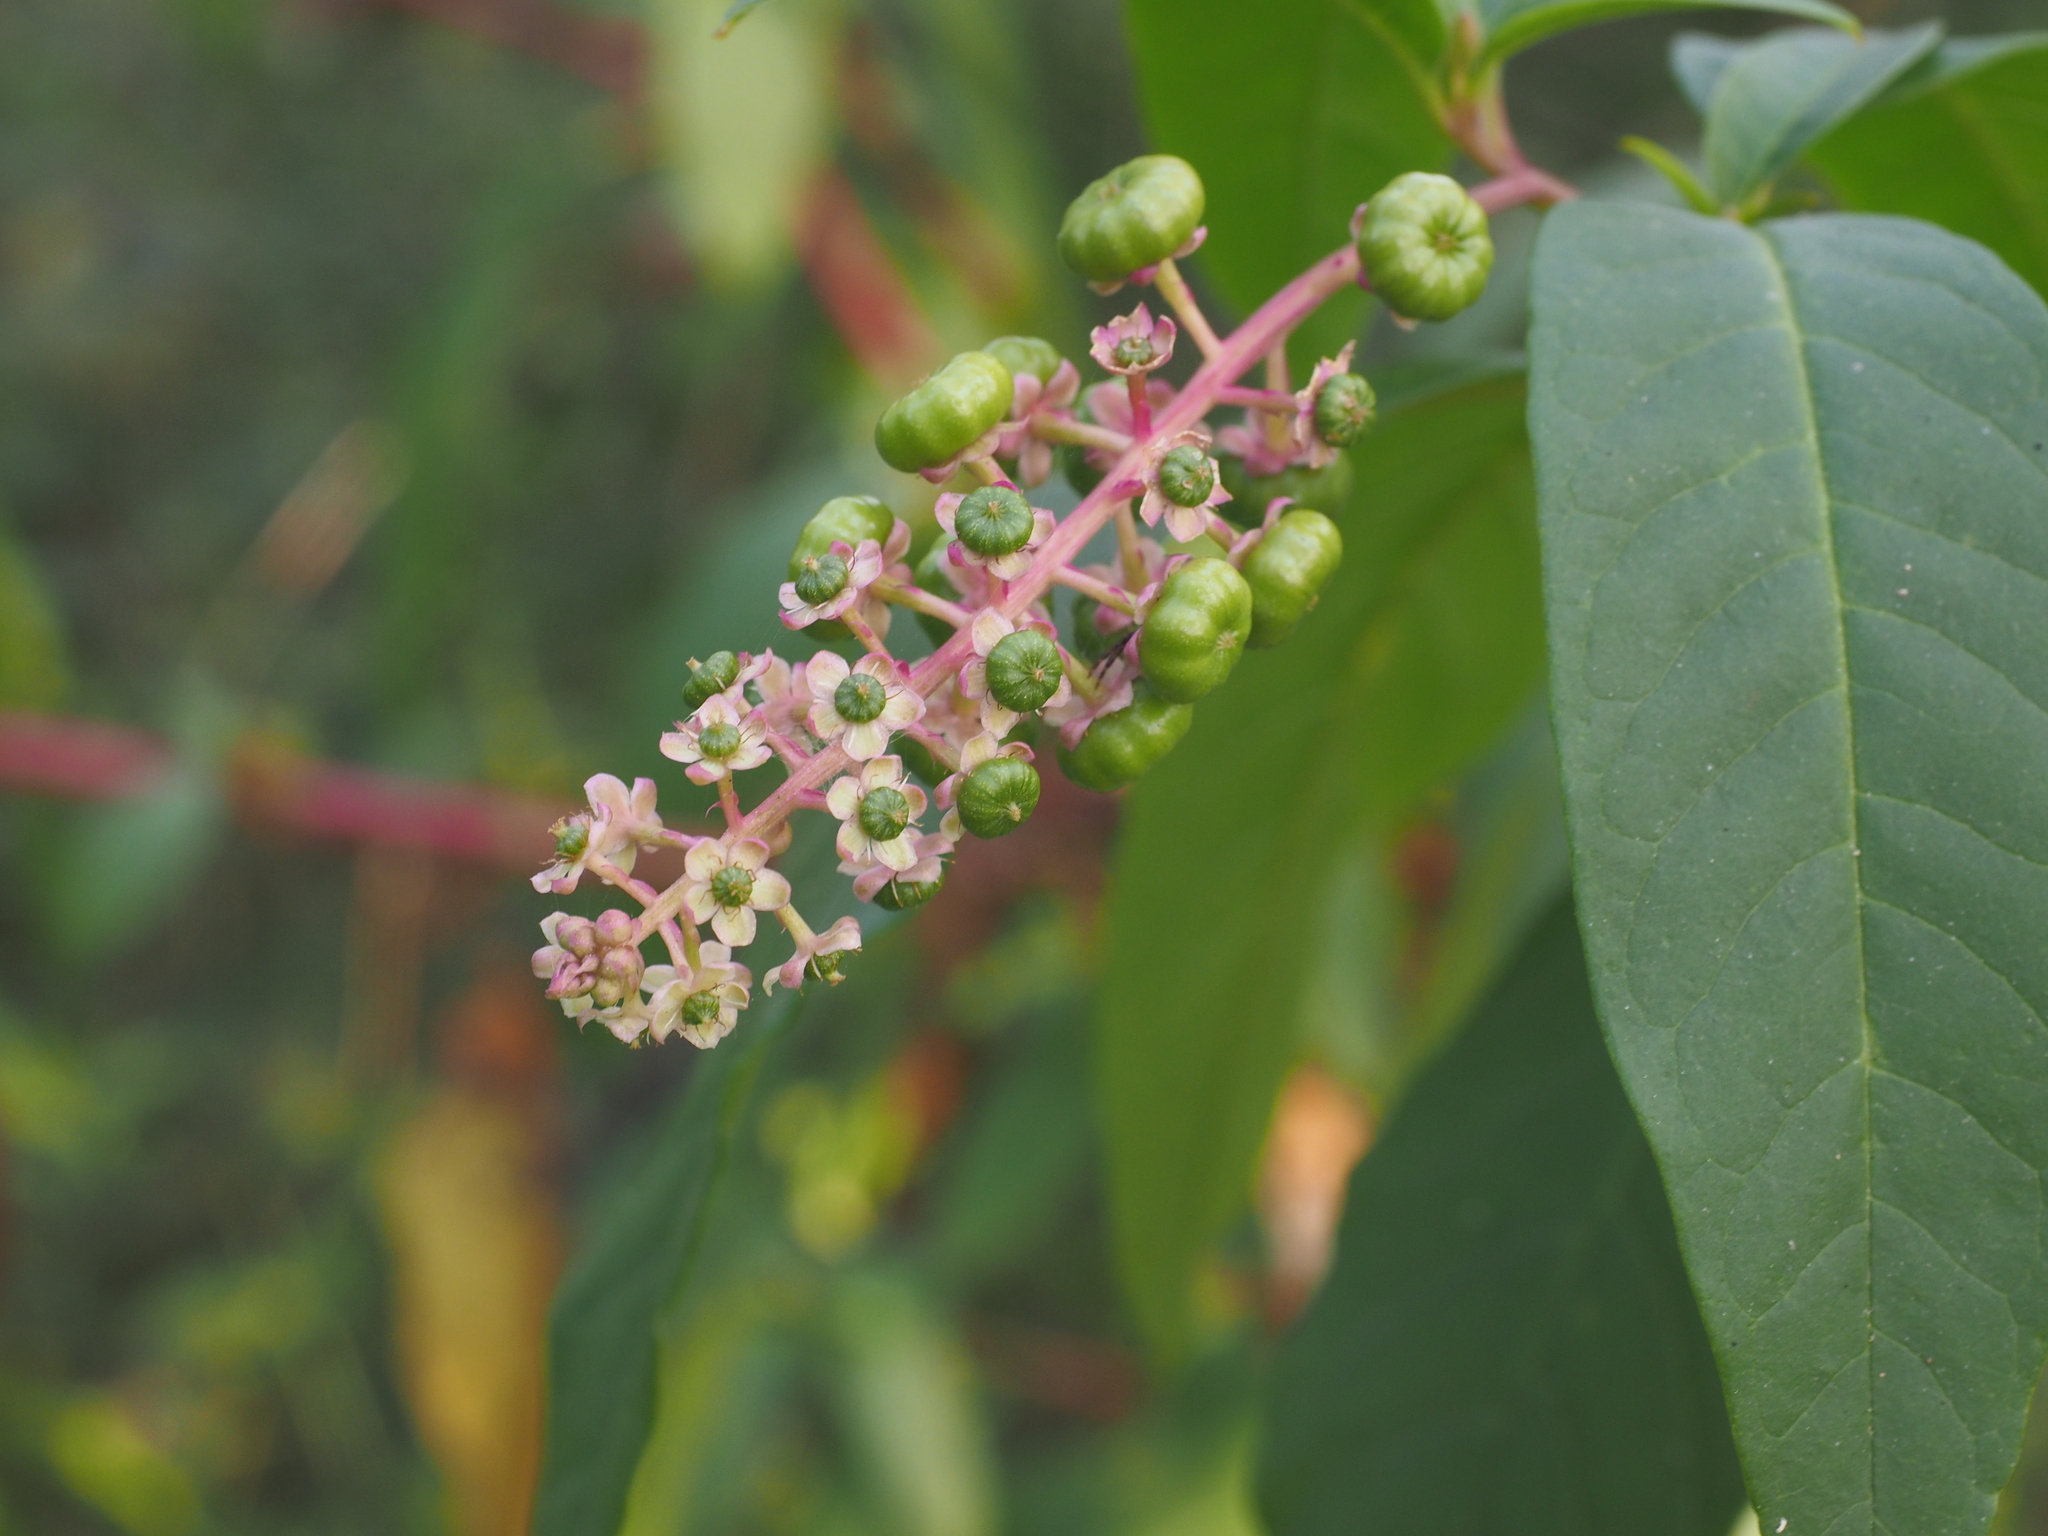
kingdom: Plantae
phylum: Tracheophyta
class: Magnoliopsida
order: Caryophyllales
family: Phytolaccaceae
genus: Phytolacca
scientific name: Phytolacca americana
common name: American pokeweed
